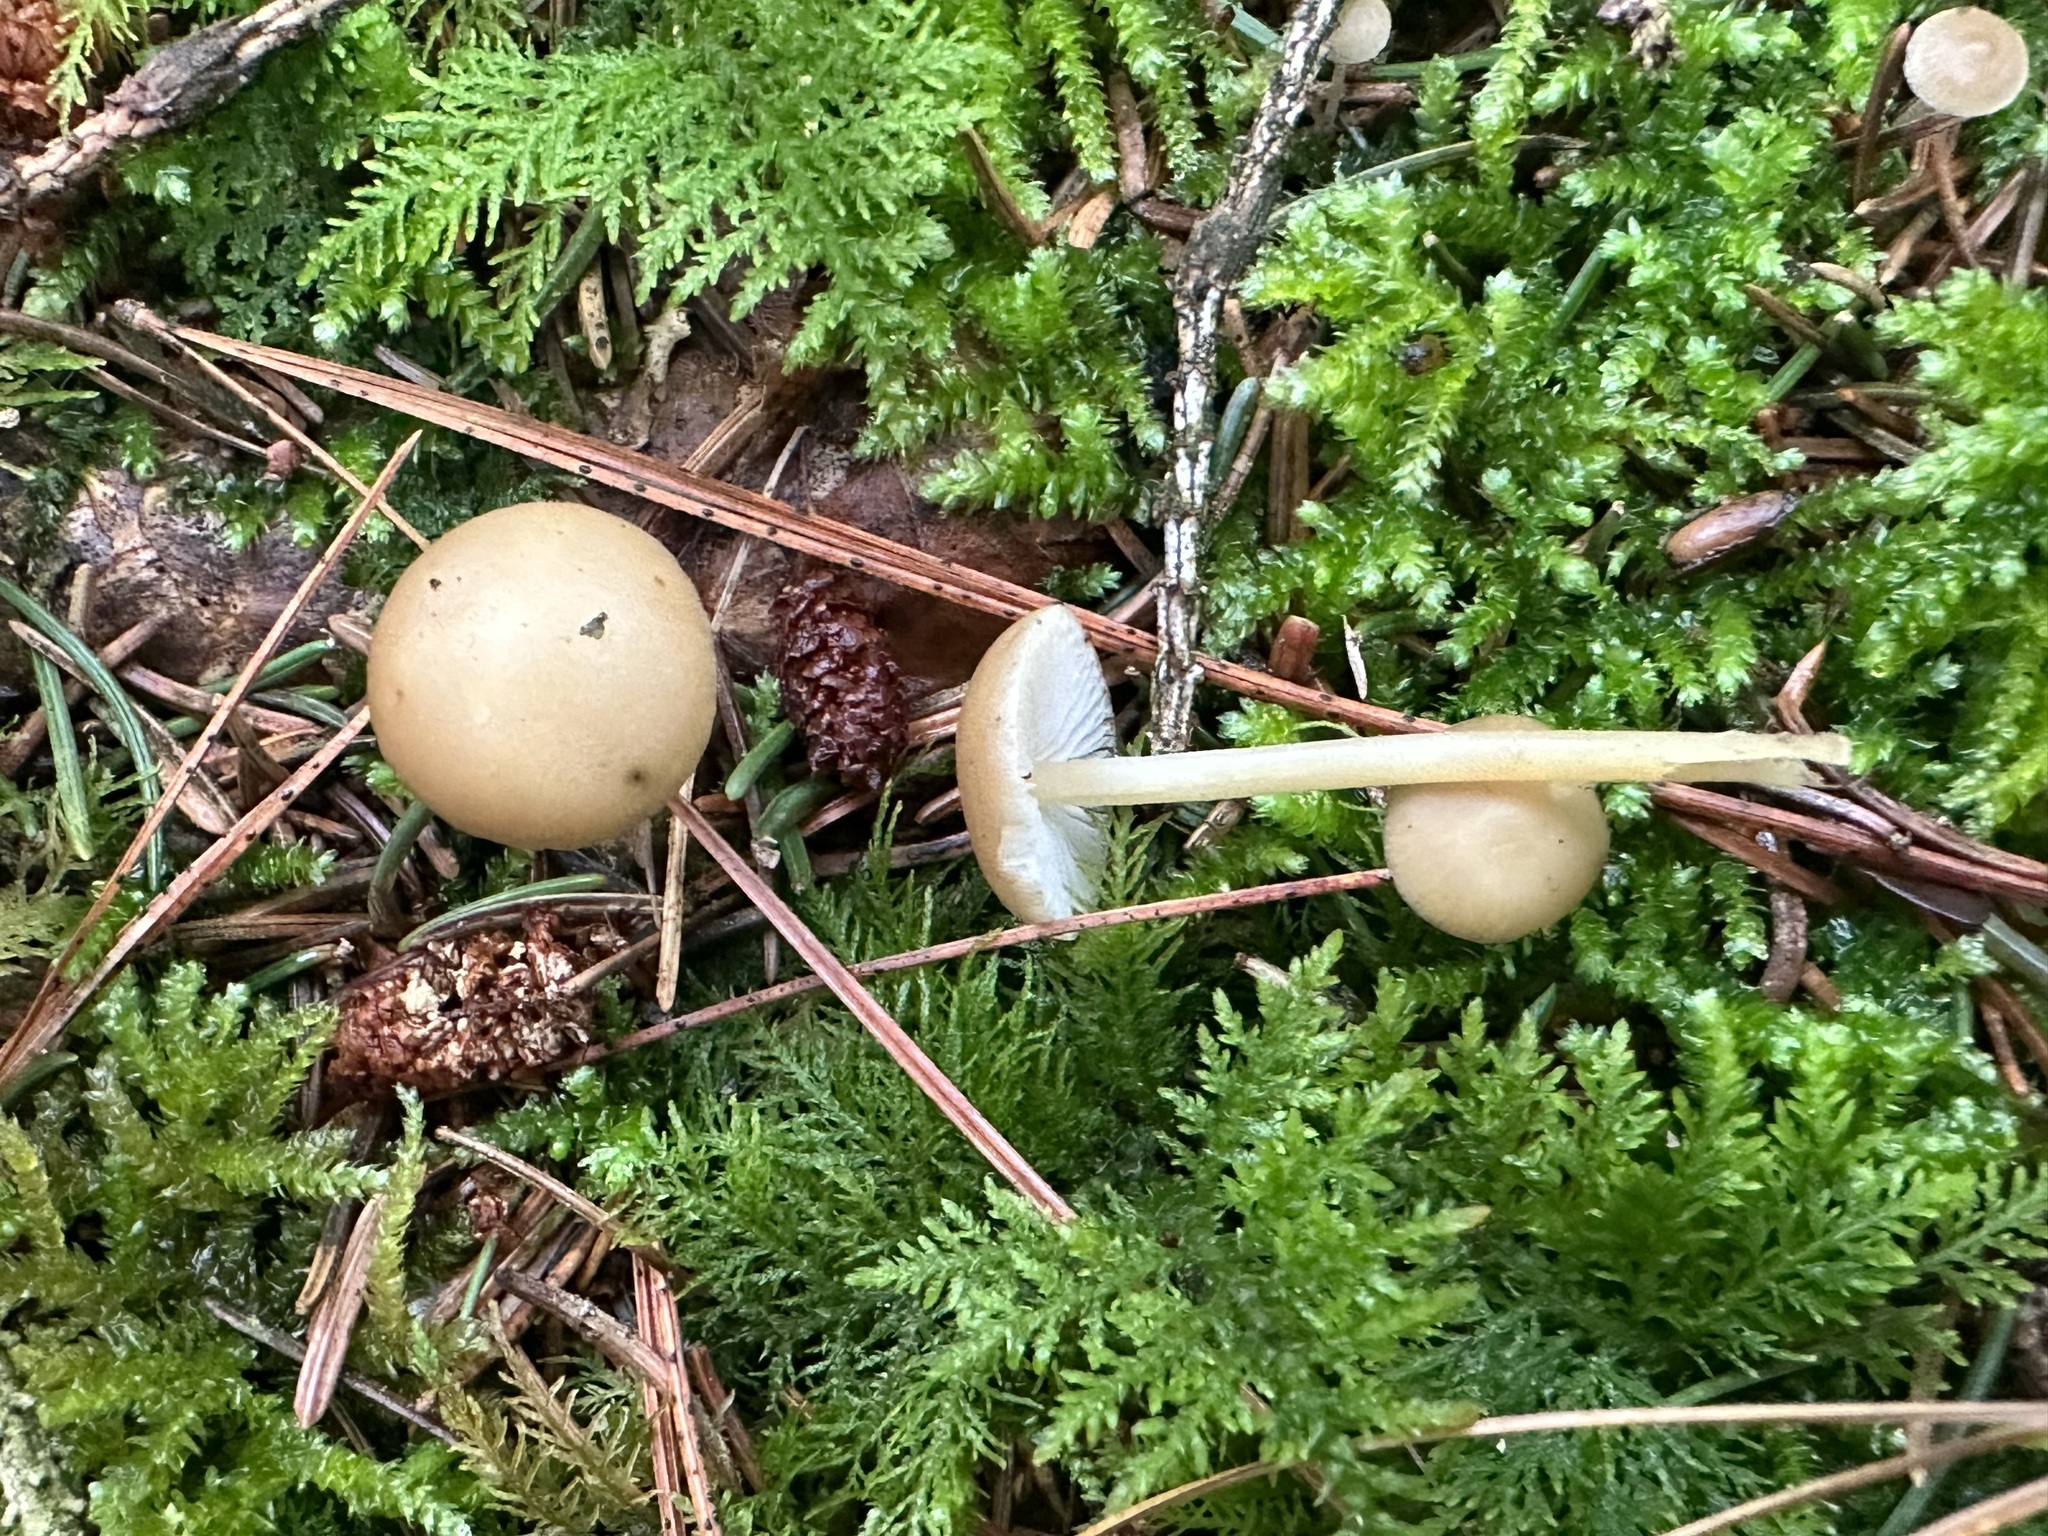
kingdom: Fungi
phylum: Basidiomycota
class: Agaricomycetes
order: Agaricales
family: Physalacriaceae
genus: Strobilurus
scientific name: Strobilurus esculentus
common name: Sprucecone cap
